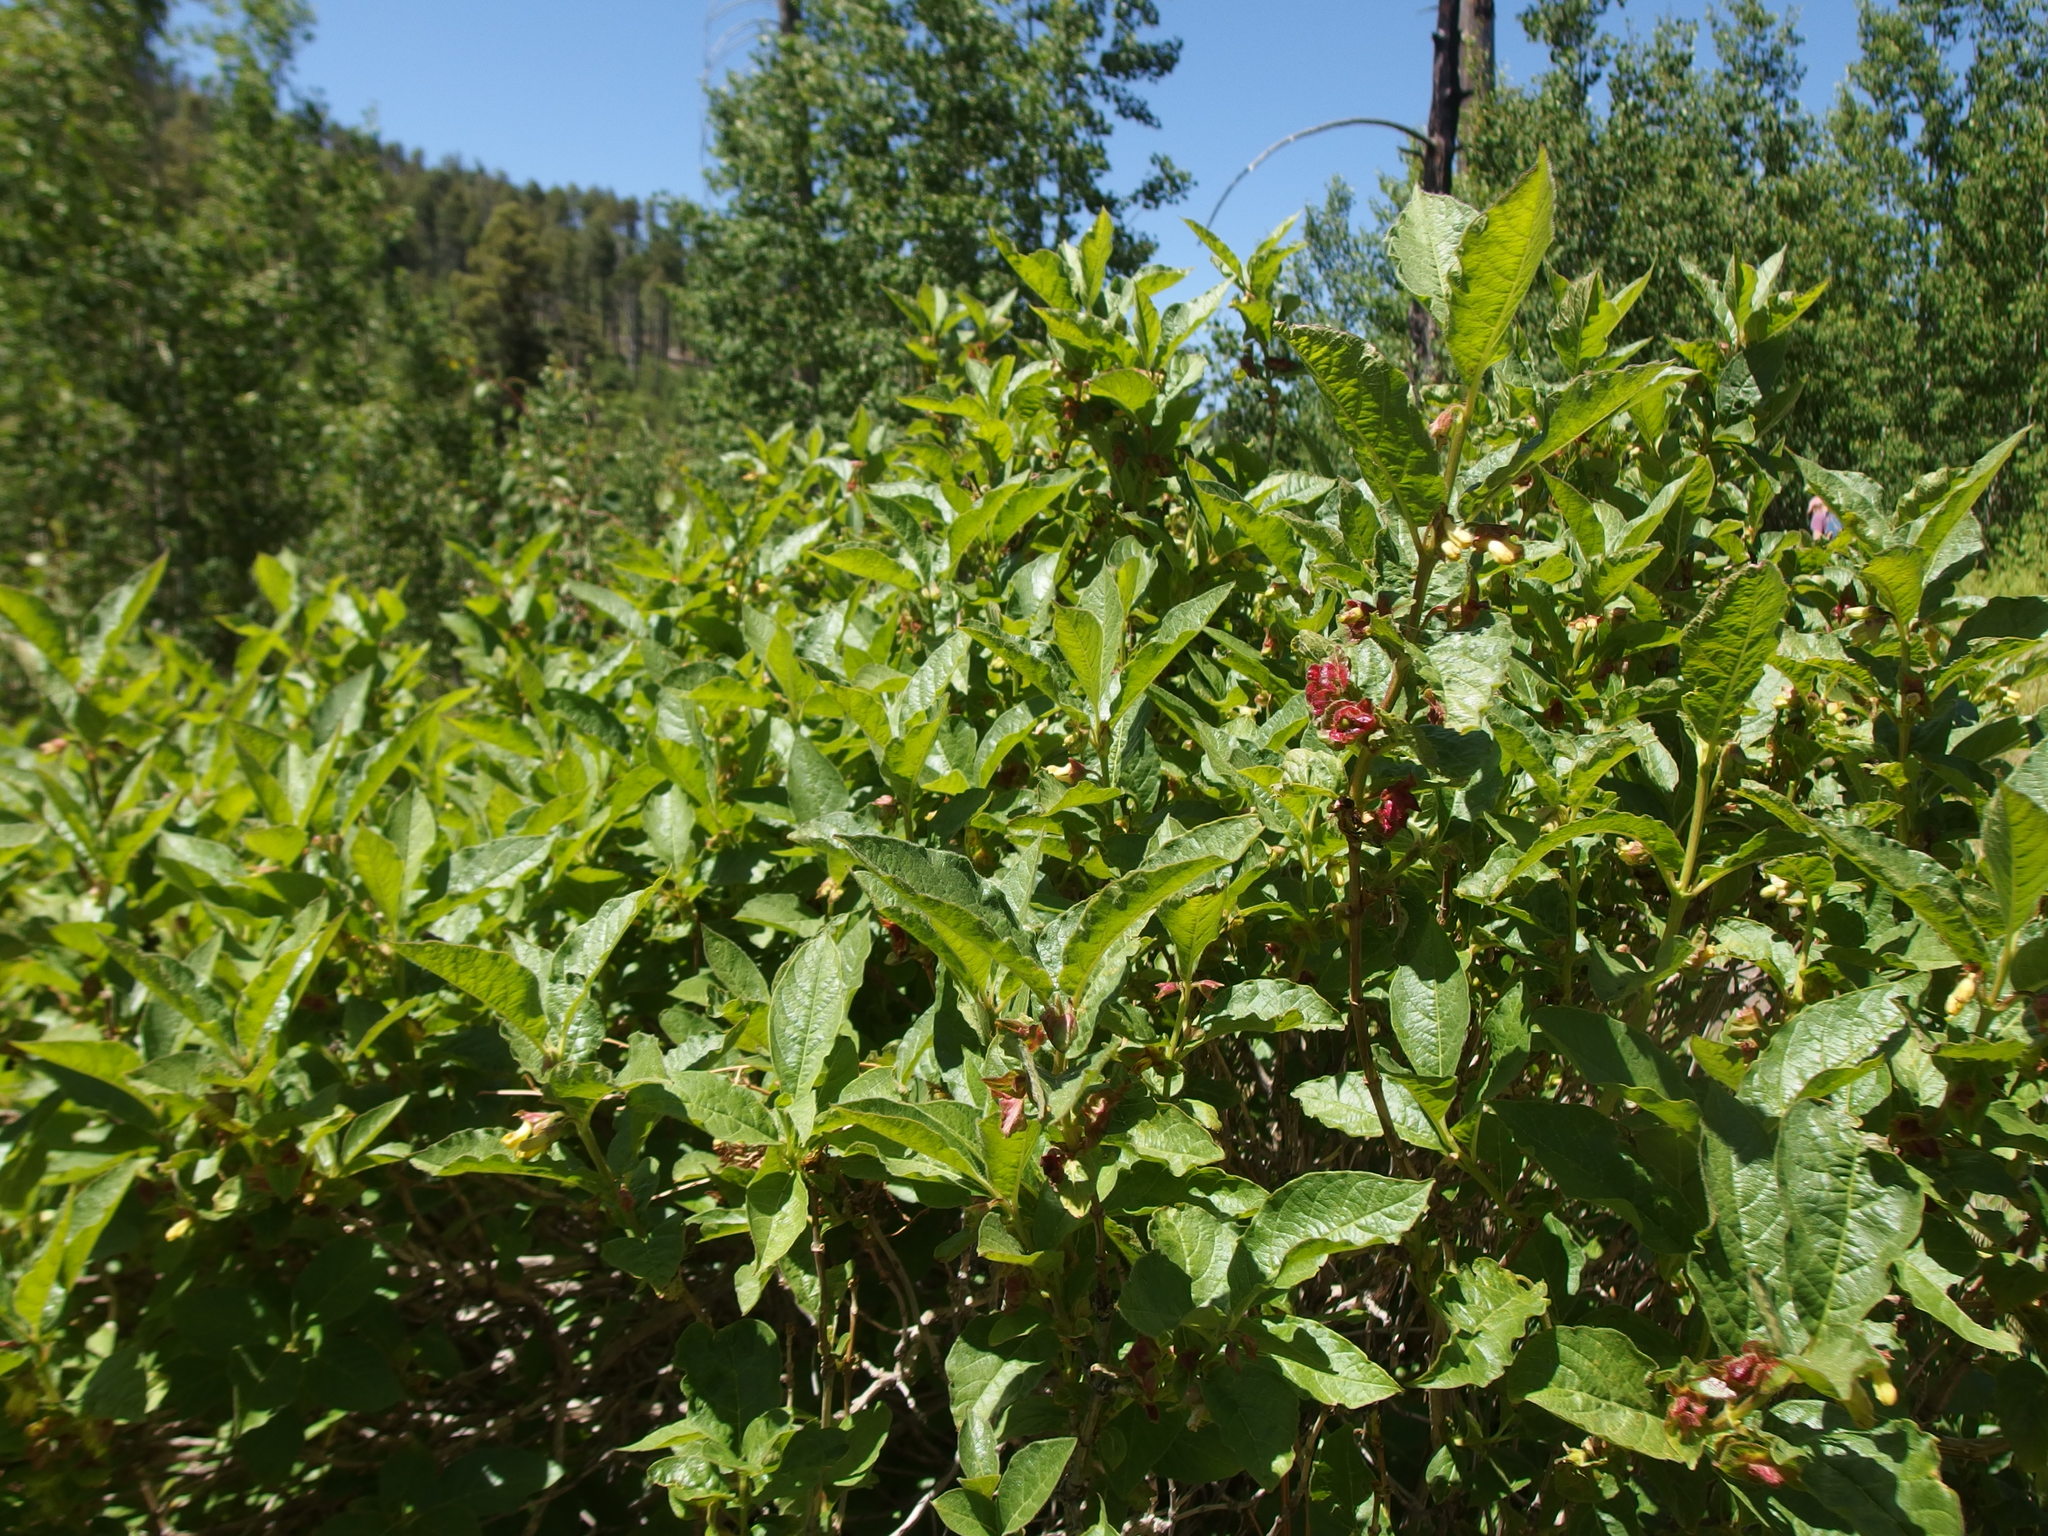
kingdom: Plantae
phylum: Tracheophyta
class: Magnoliopsida
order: Dipsacales
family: Caprifoliaceae
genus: Lonicera
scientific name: Lonicera involucrata
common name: Californian honeysuckle
